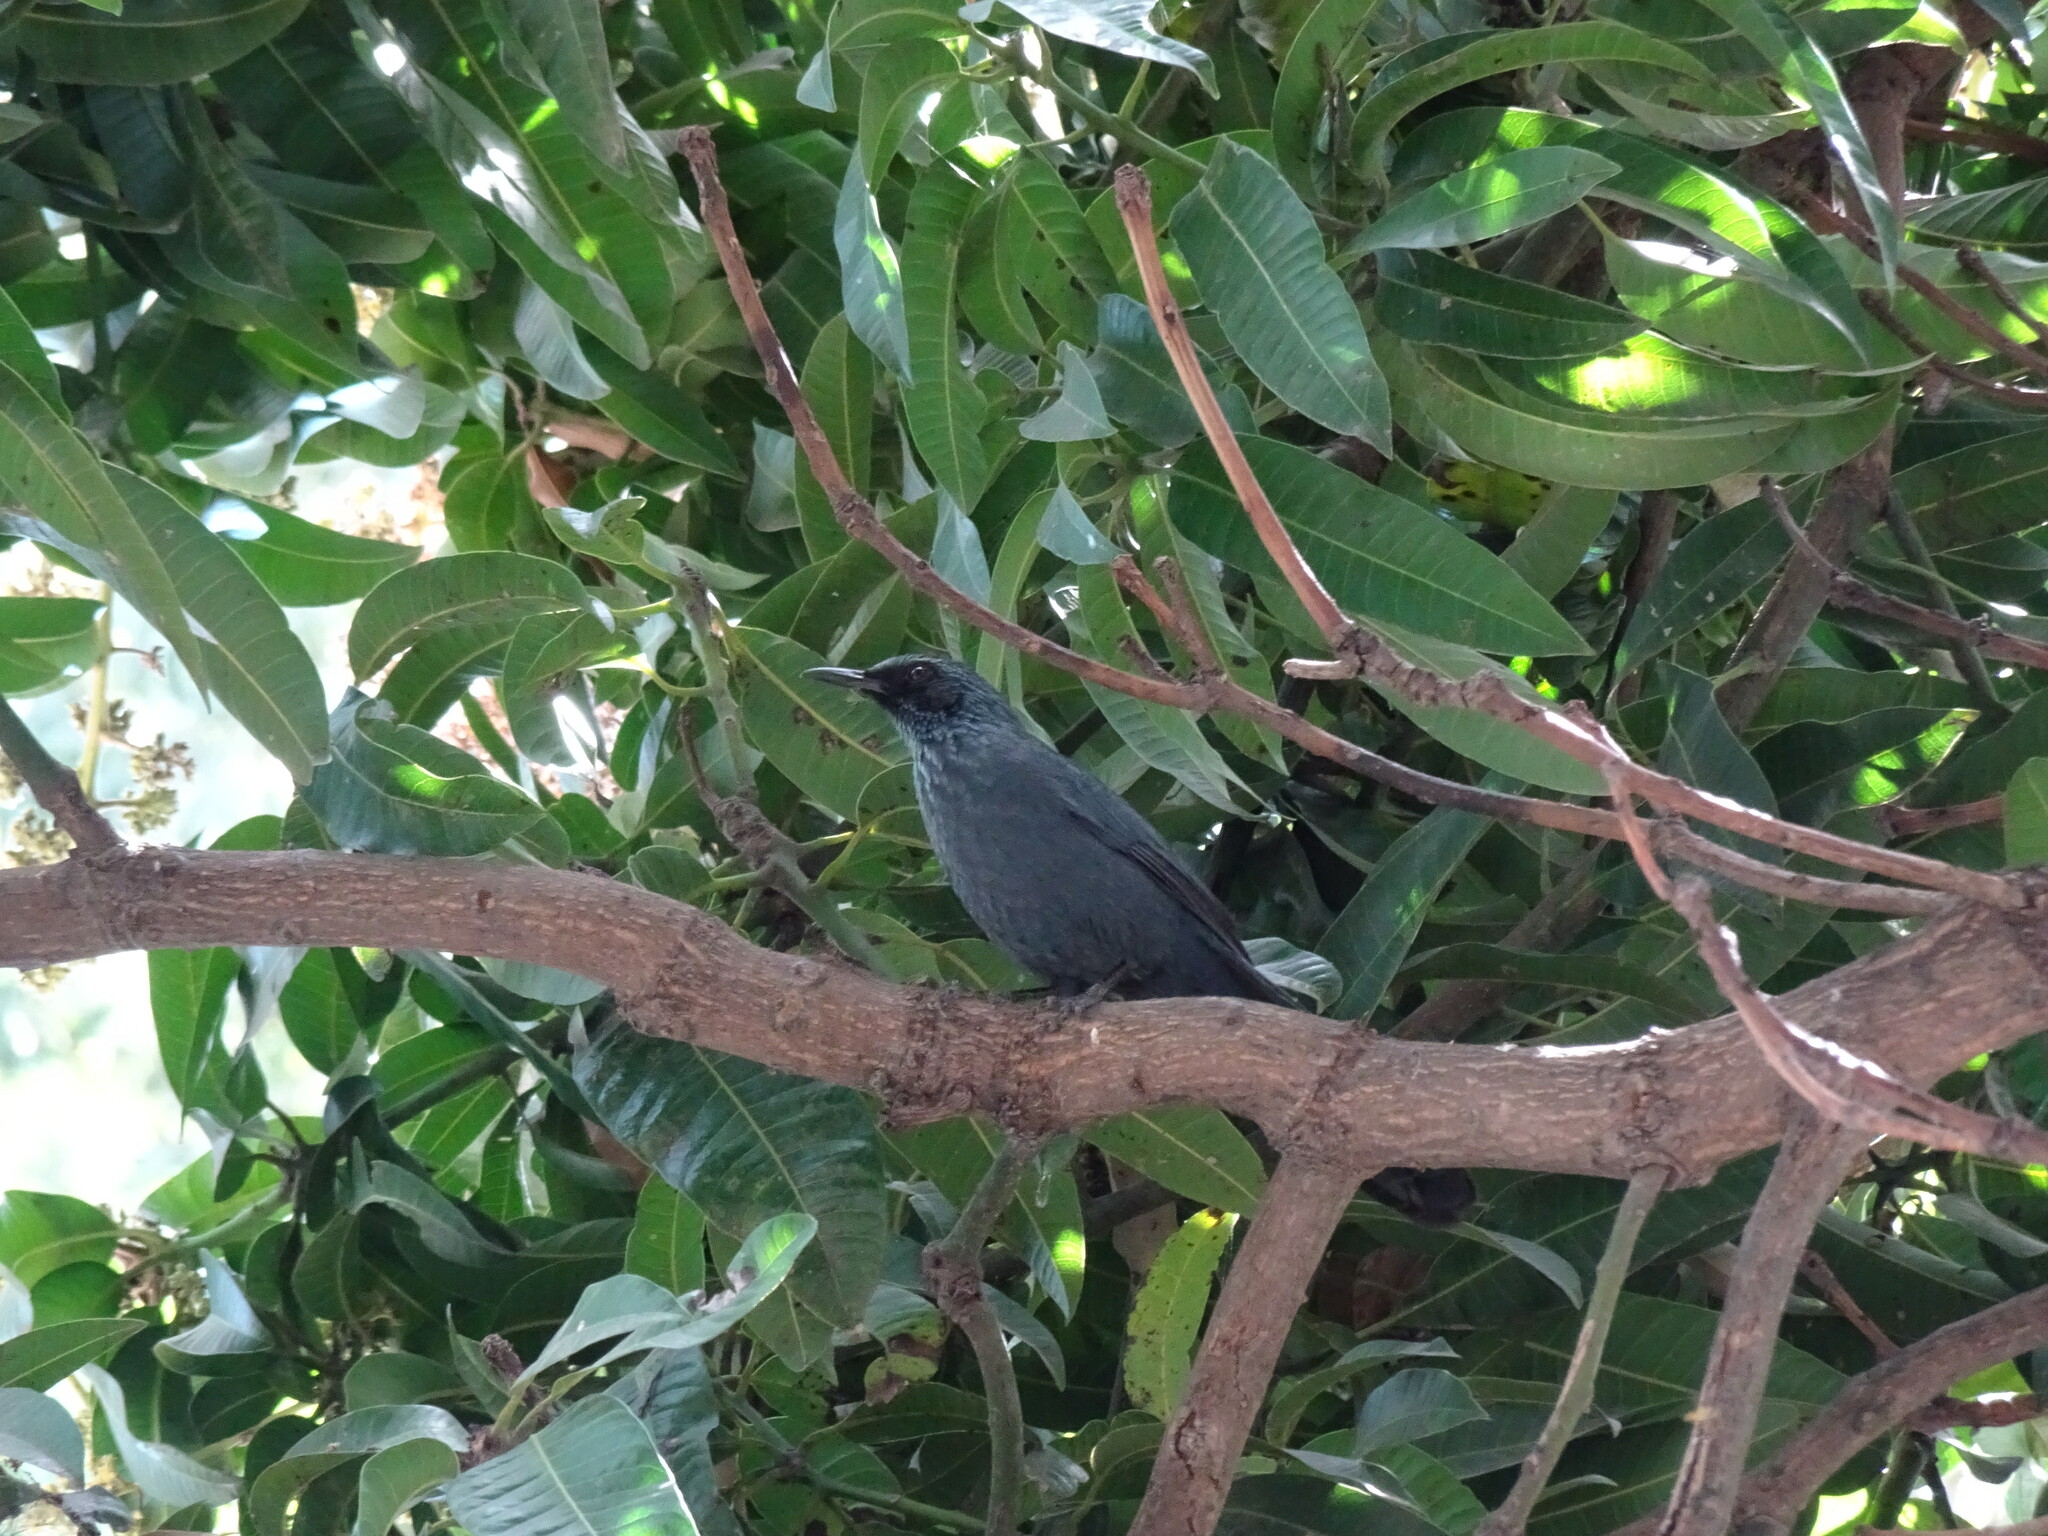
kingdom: Animalia
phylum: Chordata
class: Aves
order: Passeriformes
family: Mimidae
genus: Melanotis
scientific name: Melanotis caerulescens
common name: Blue mockingbird
